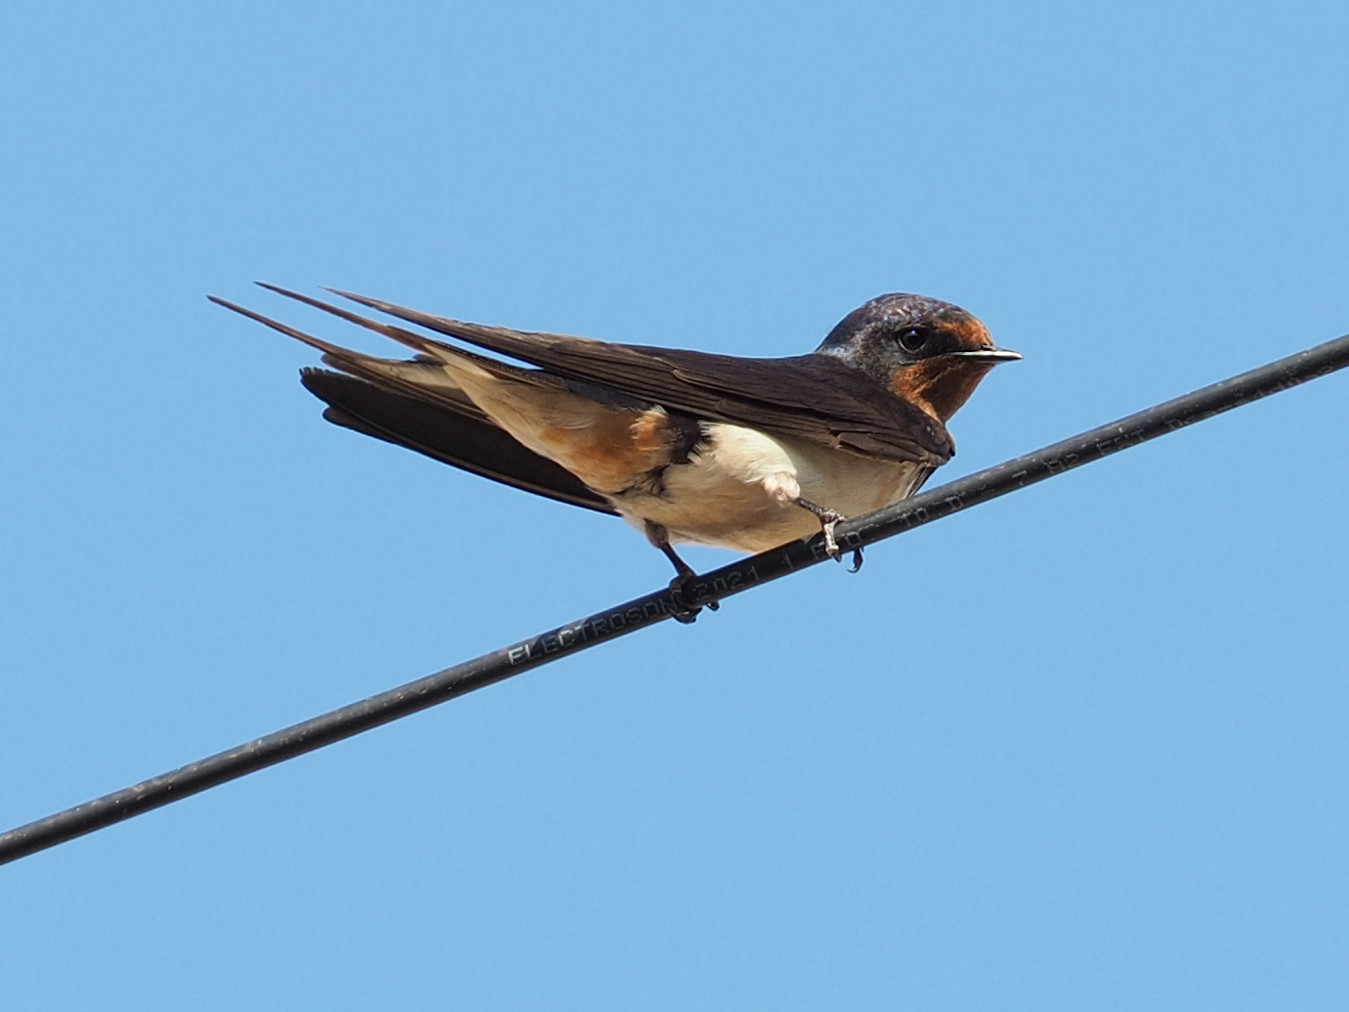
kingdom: Animalia
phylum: Chordata
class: Aves
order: Passeriformes
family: Hirundinidae
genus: Hirundo
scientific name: Hirundo rustica
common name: Barn swallow
